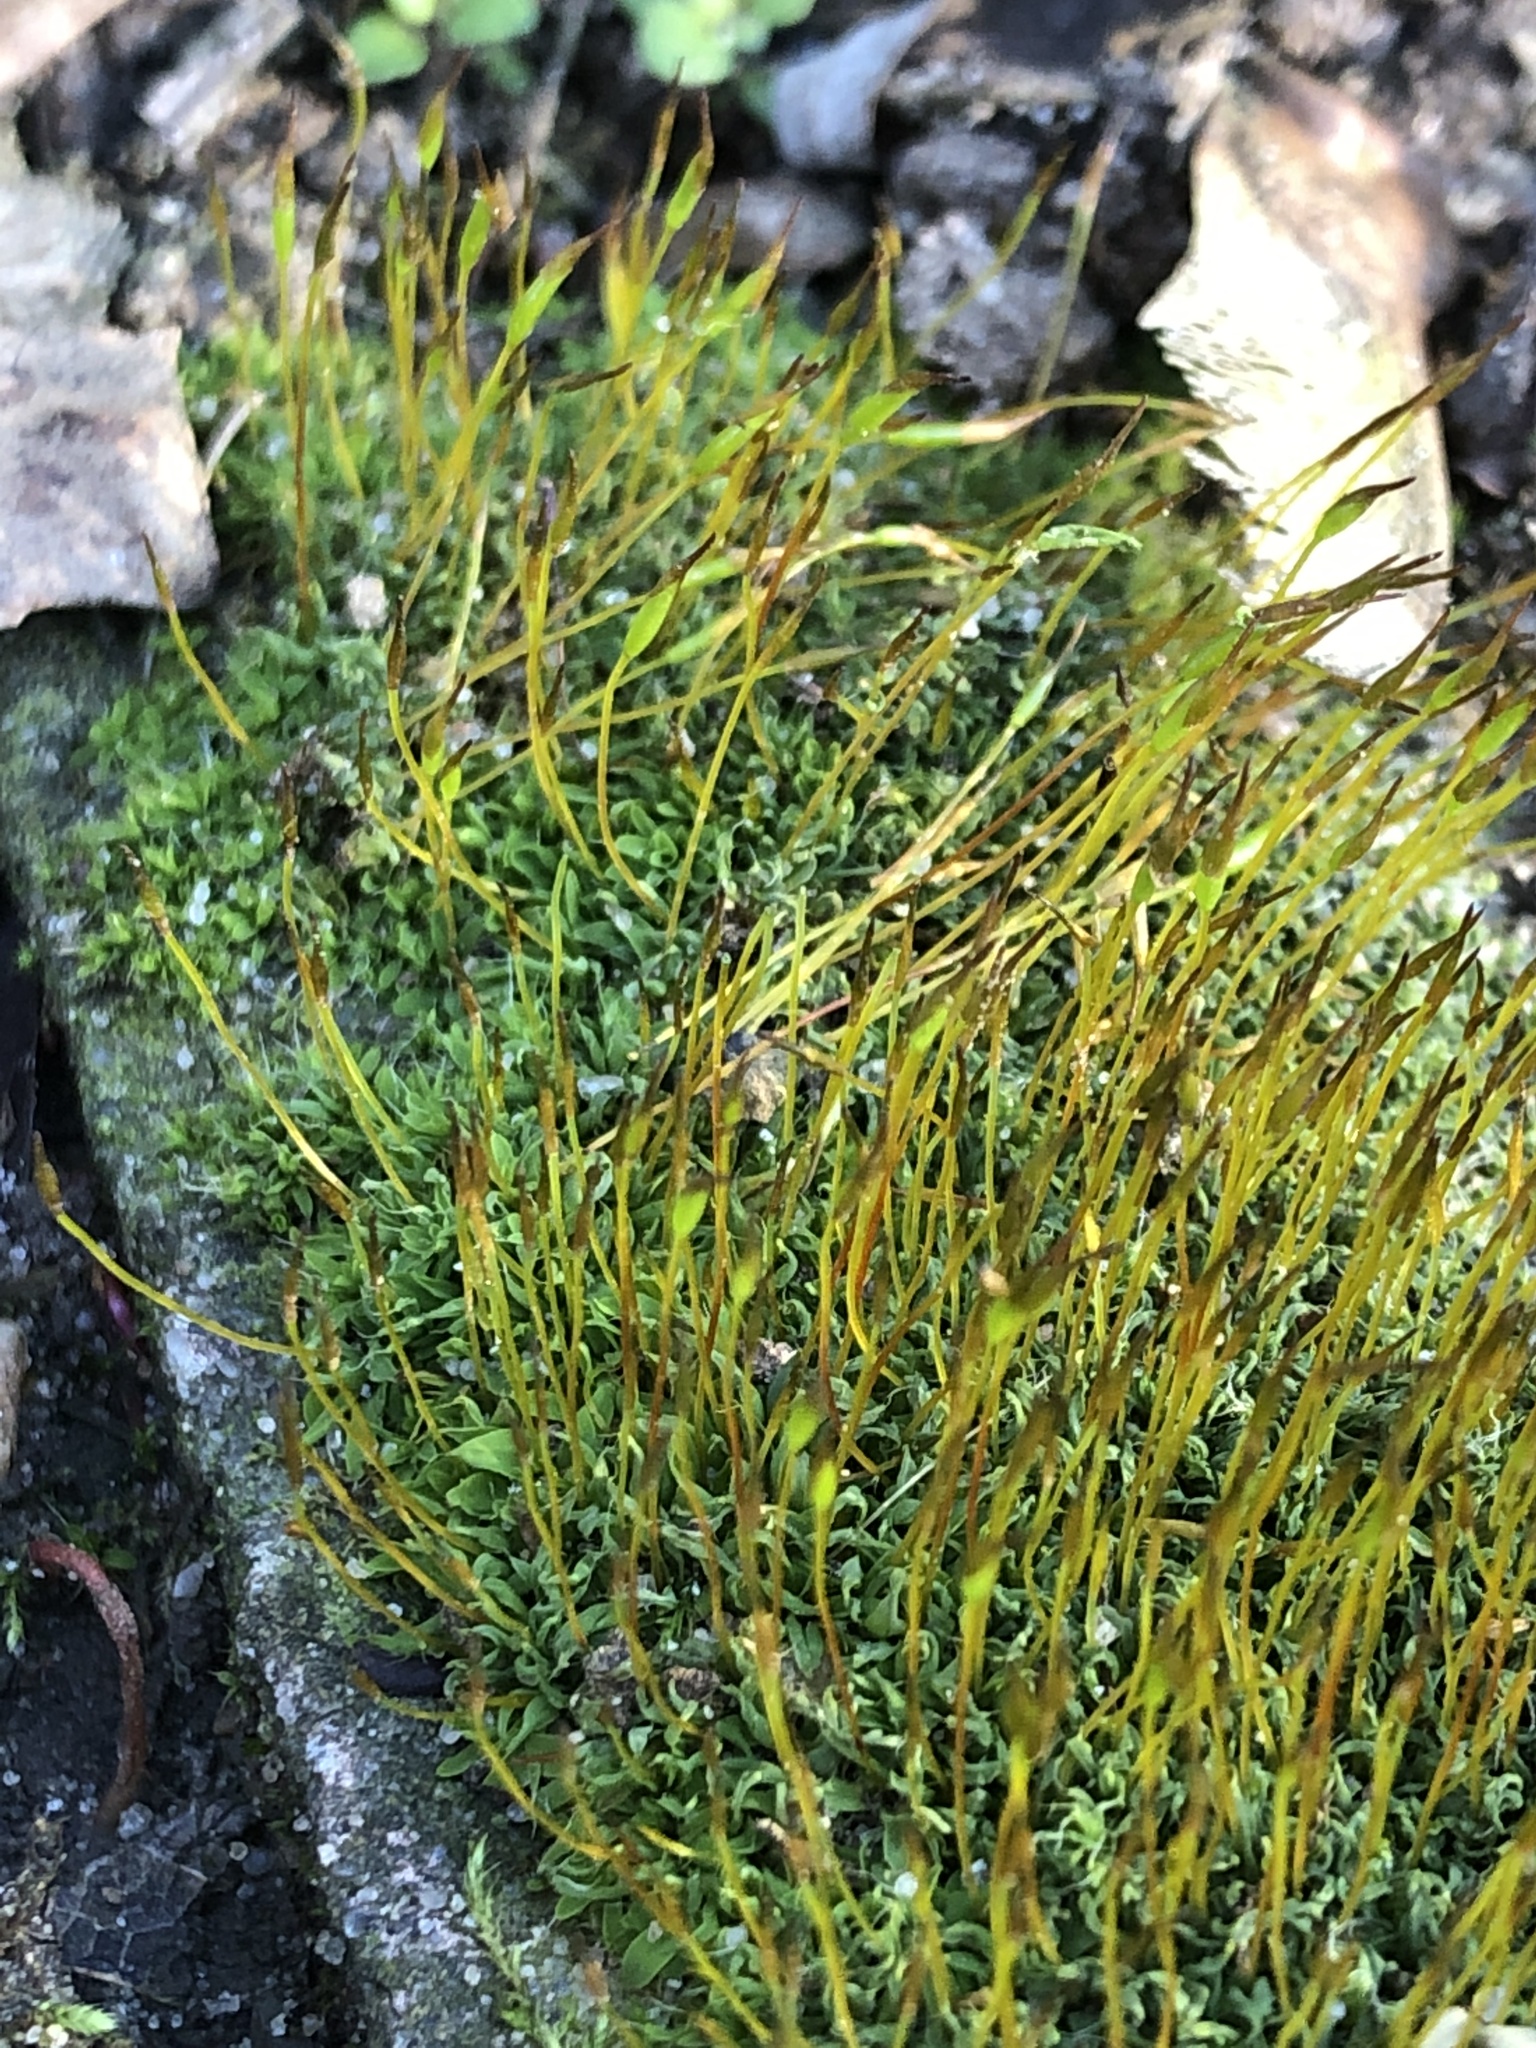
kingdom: Plantae
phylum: Bryophyta
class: Bryopsida
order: Pottiales
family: Pottiaceae
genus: Tortula
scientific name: Tortula muralis
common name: Wall screw-moss
